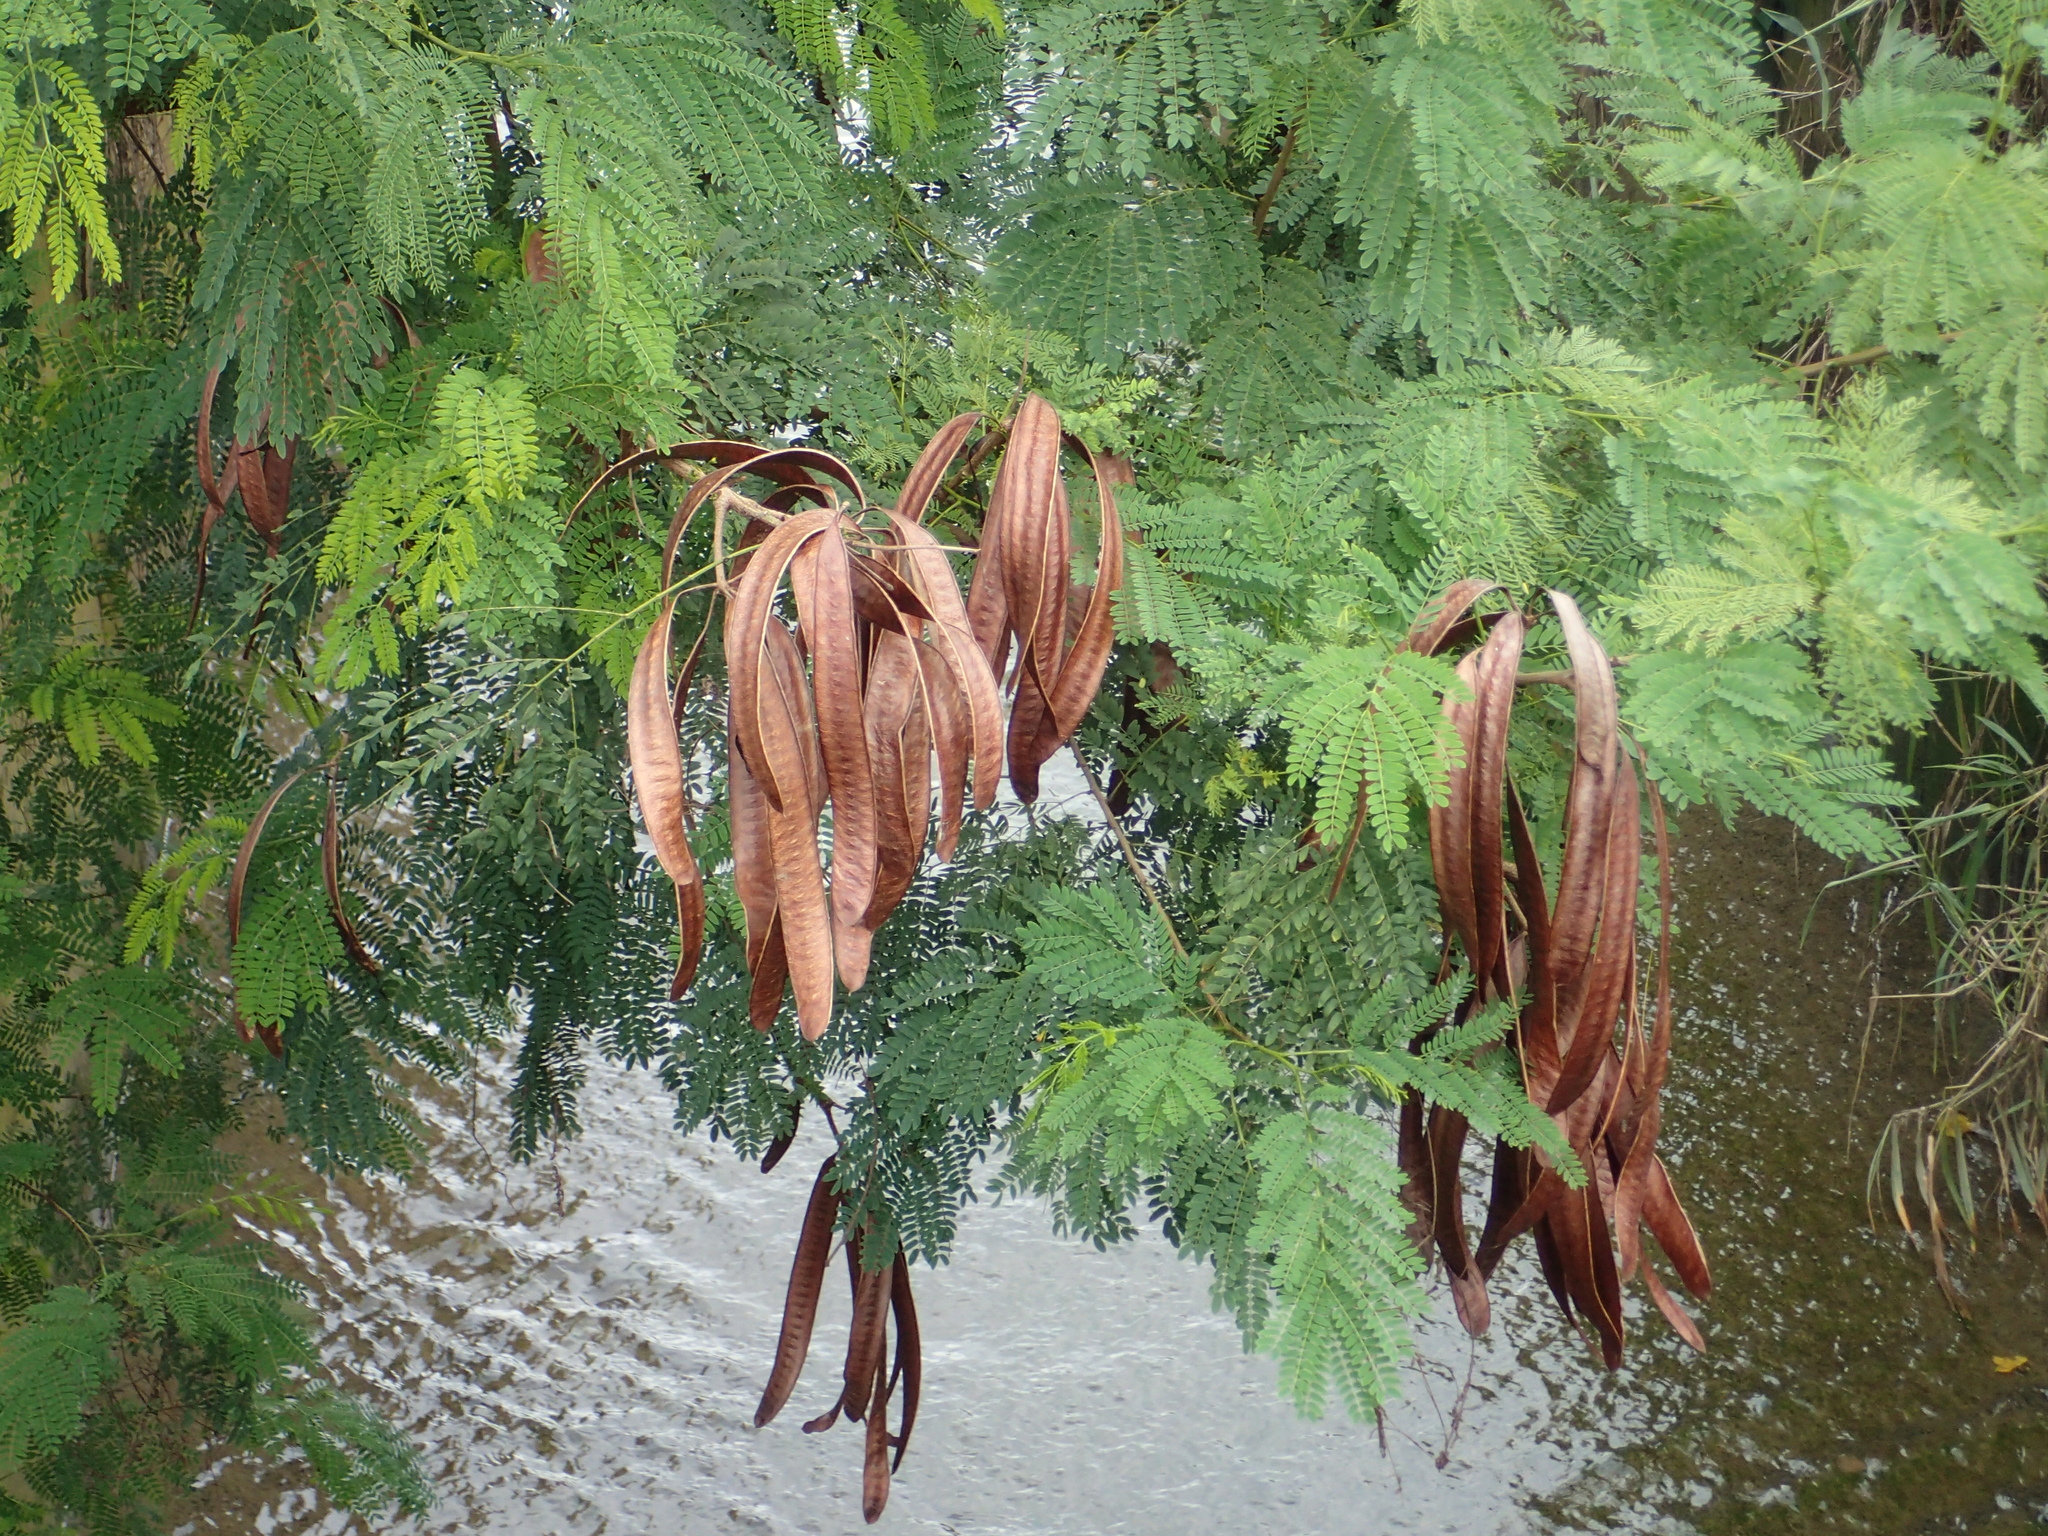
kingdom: Plantae
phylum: Tracheophyta
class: Magnoliopsida
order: Fabales
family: Fabaceae
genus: Leucaena
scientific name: Leucaena leucocephala
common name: White leadtree
